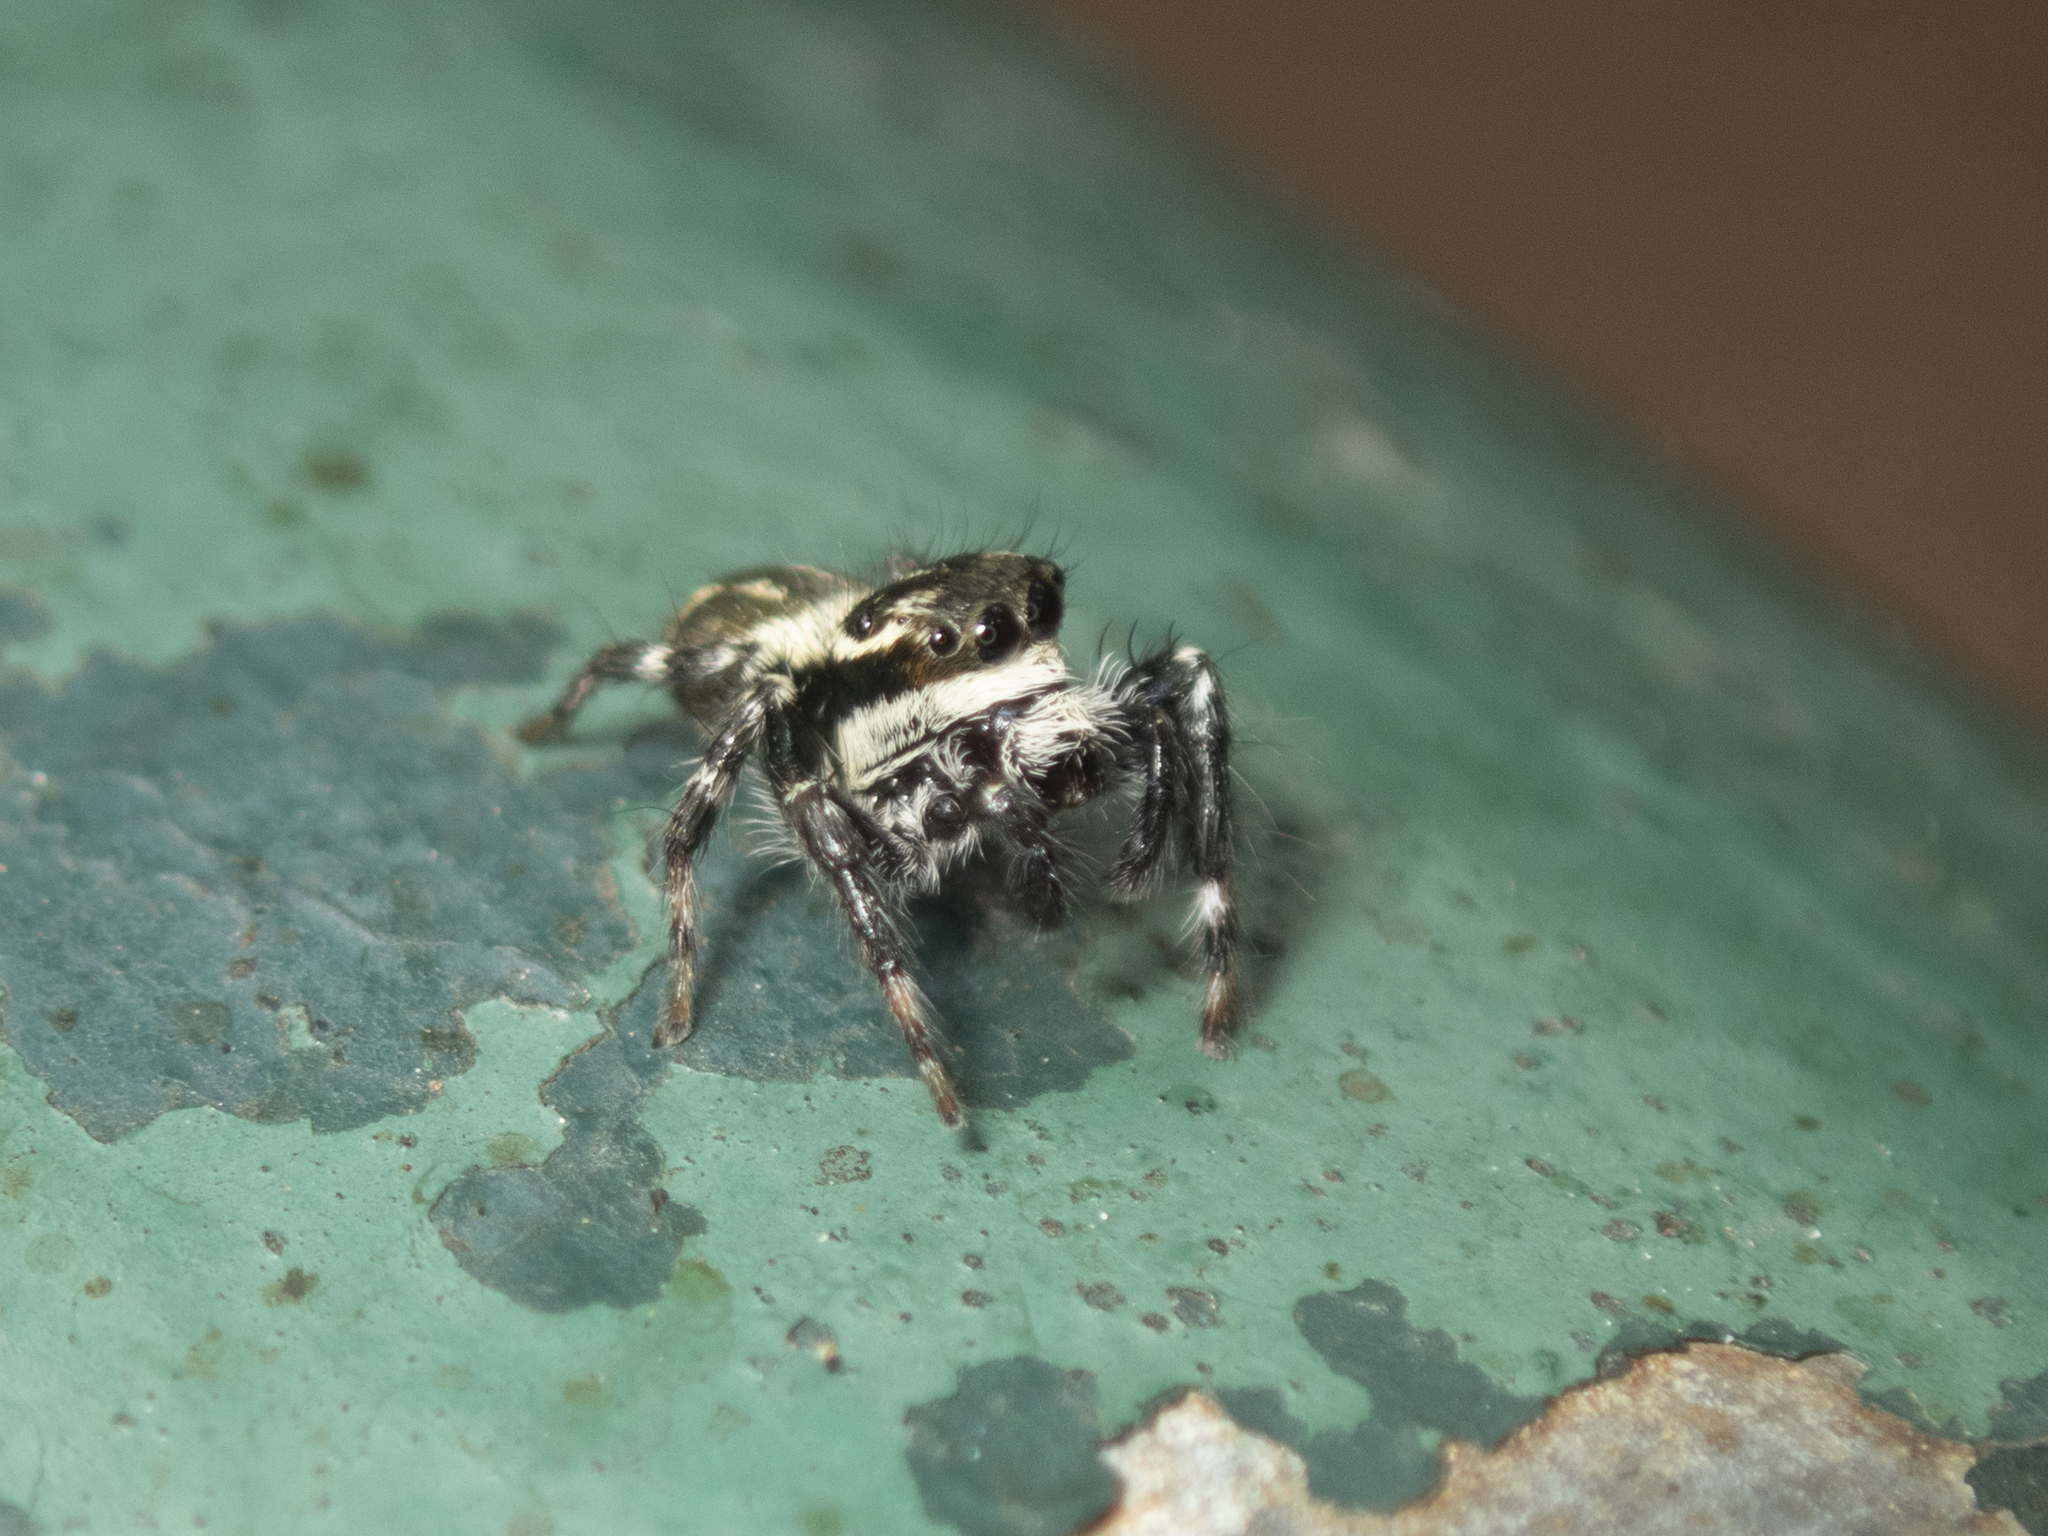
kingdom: Animalia
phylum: Arthropoda
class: Arachnida
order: Araneae
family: Salticidae
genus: Carrhotus
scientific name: Carrhotus sannio
